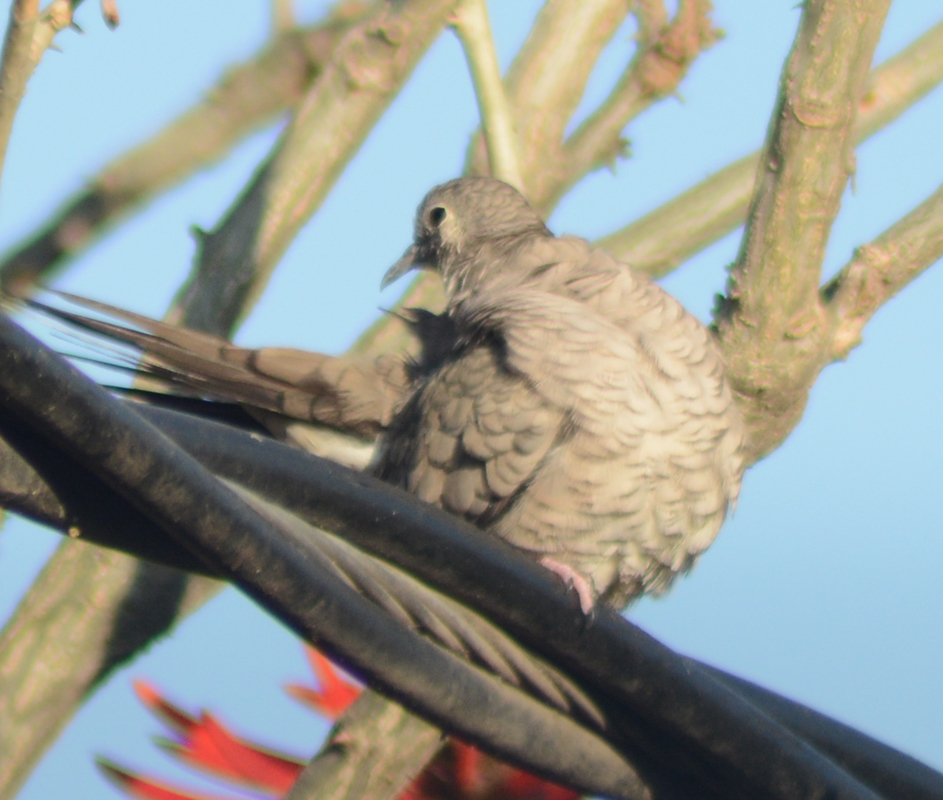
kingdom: Animalia
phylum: Chordata
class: Aves
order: Columbiformes
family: Columbidae
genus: Columbina
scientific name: Columbina inca
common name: Inca dove
